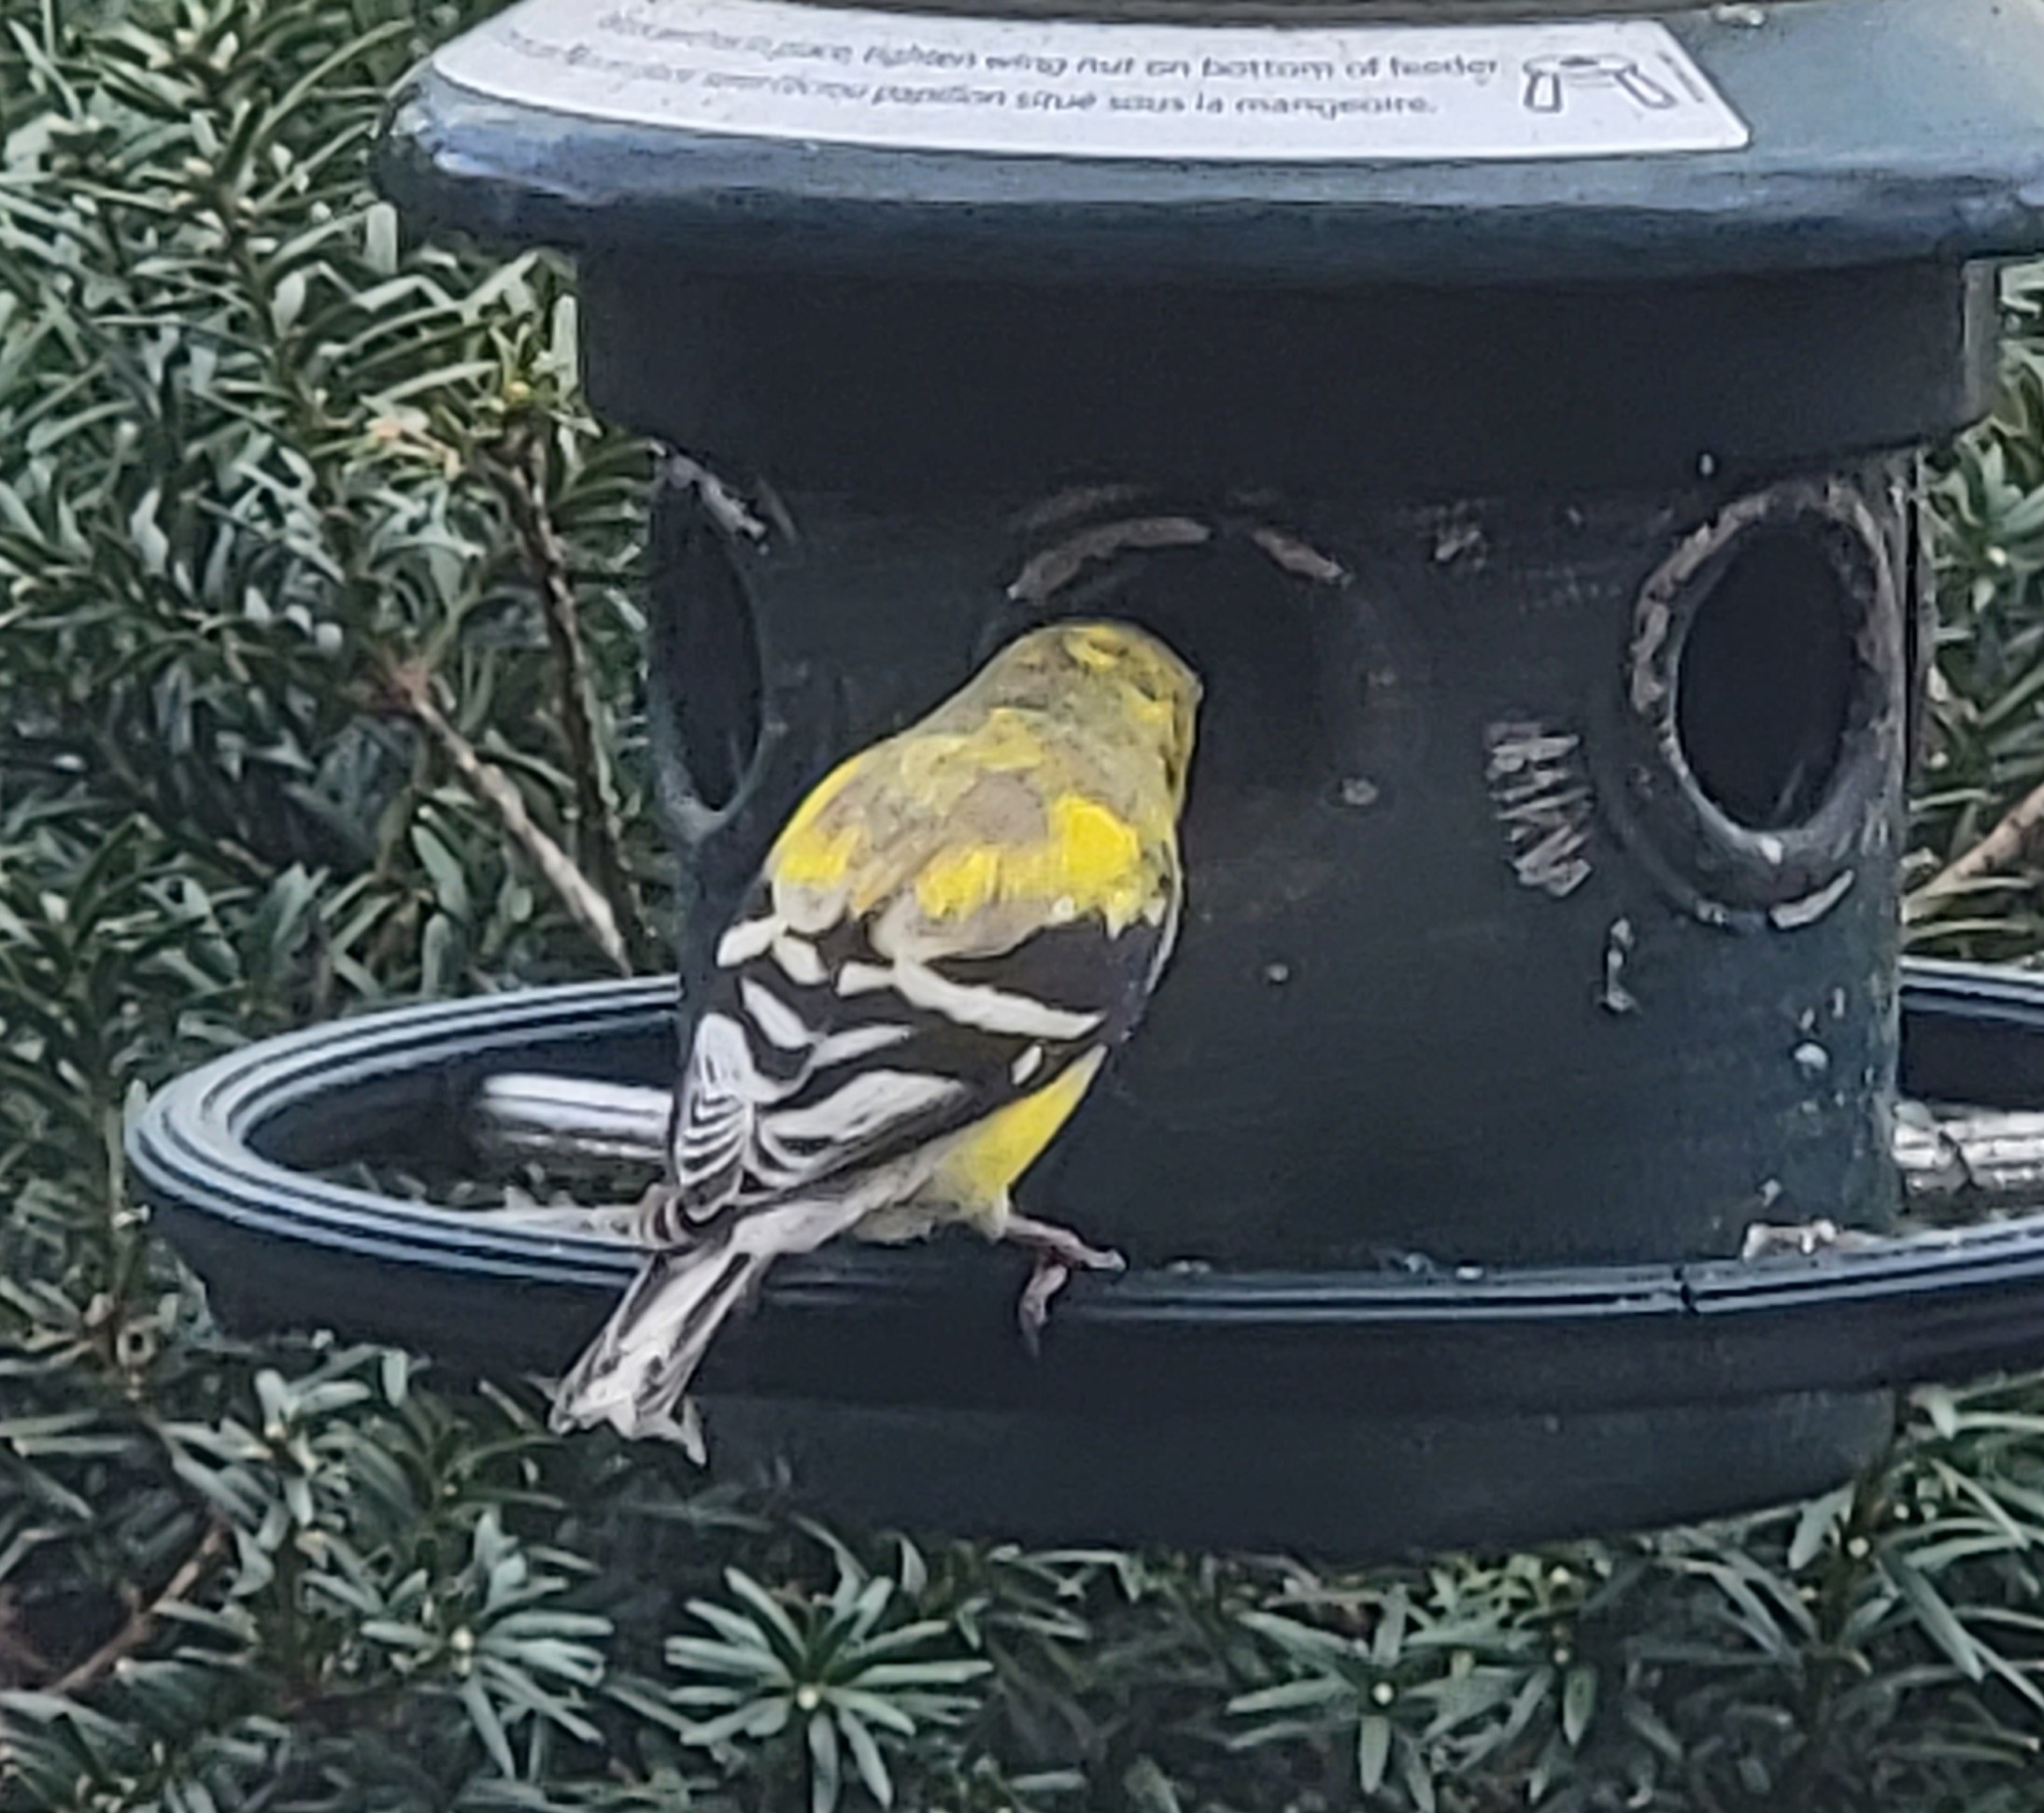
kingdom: Animalia
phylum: Chordata
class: Aves
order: Passeriformes
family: Fringillidae
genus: Spinus
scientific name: Spinus tristis
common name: American goldfinch
